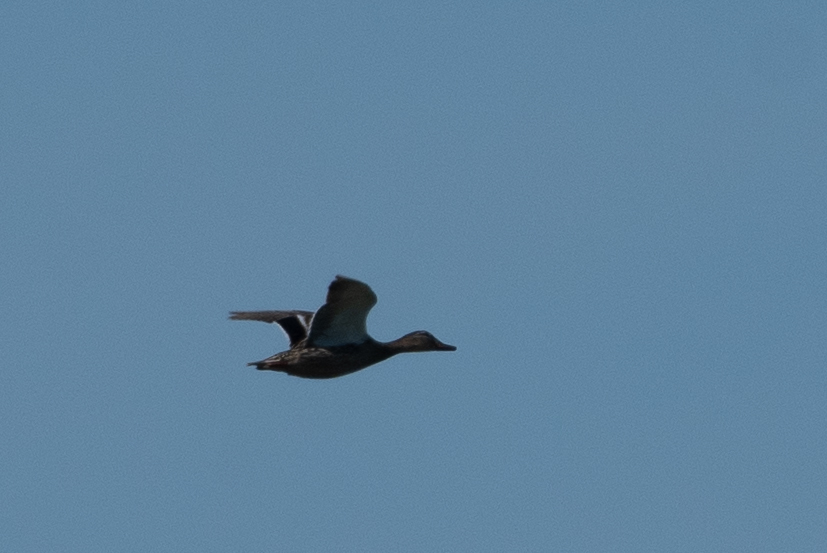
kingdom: Animalia
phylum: Chordata
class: Aves
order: Anseriformes
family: Anatidae
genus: Anas
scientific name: Anas platyrhynchos
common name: Mallard
